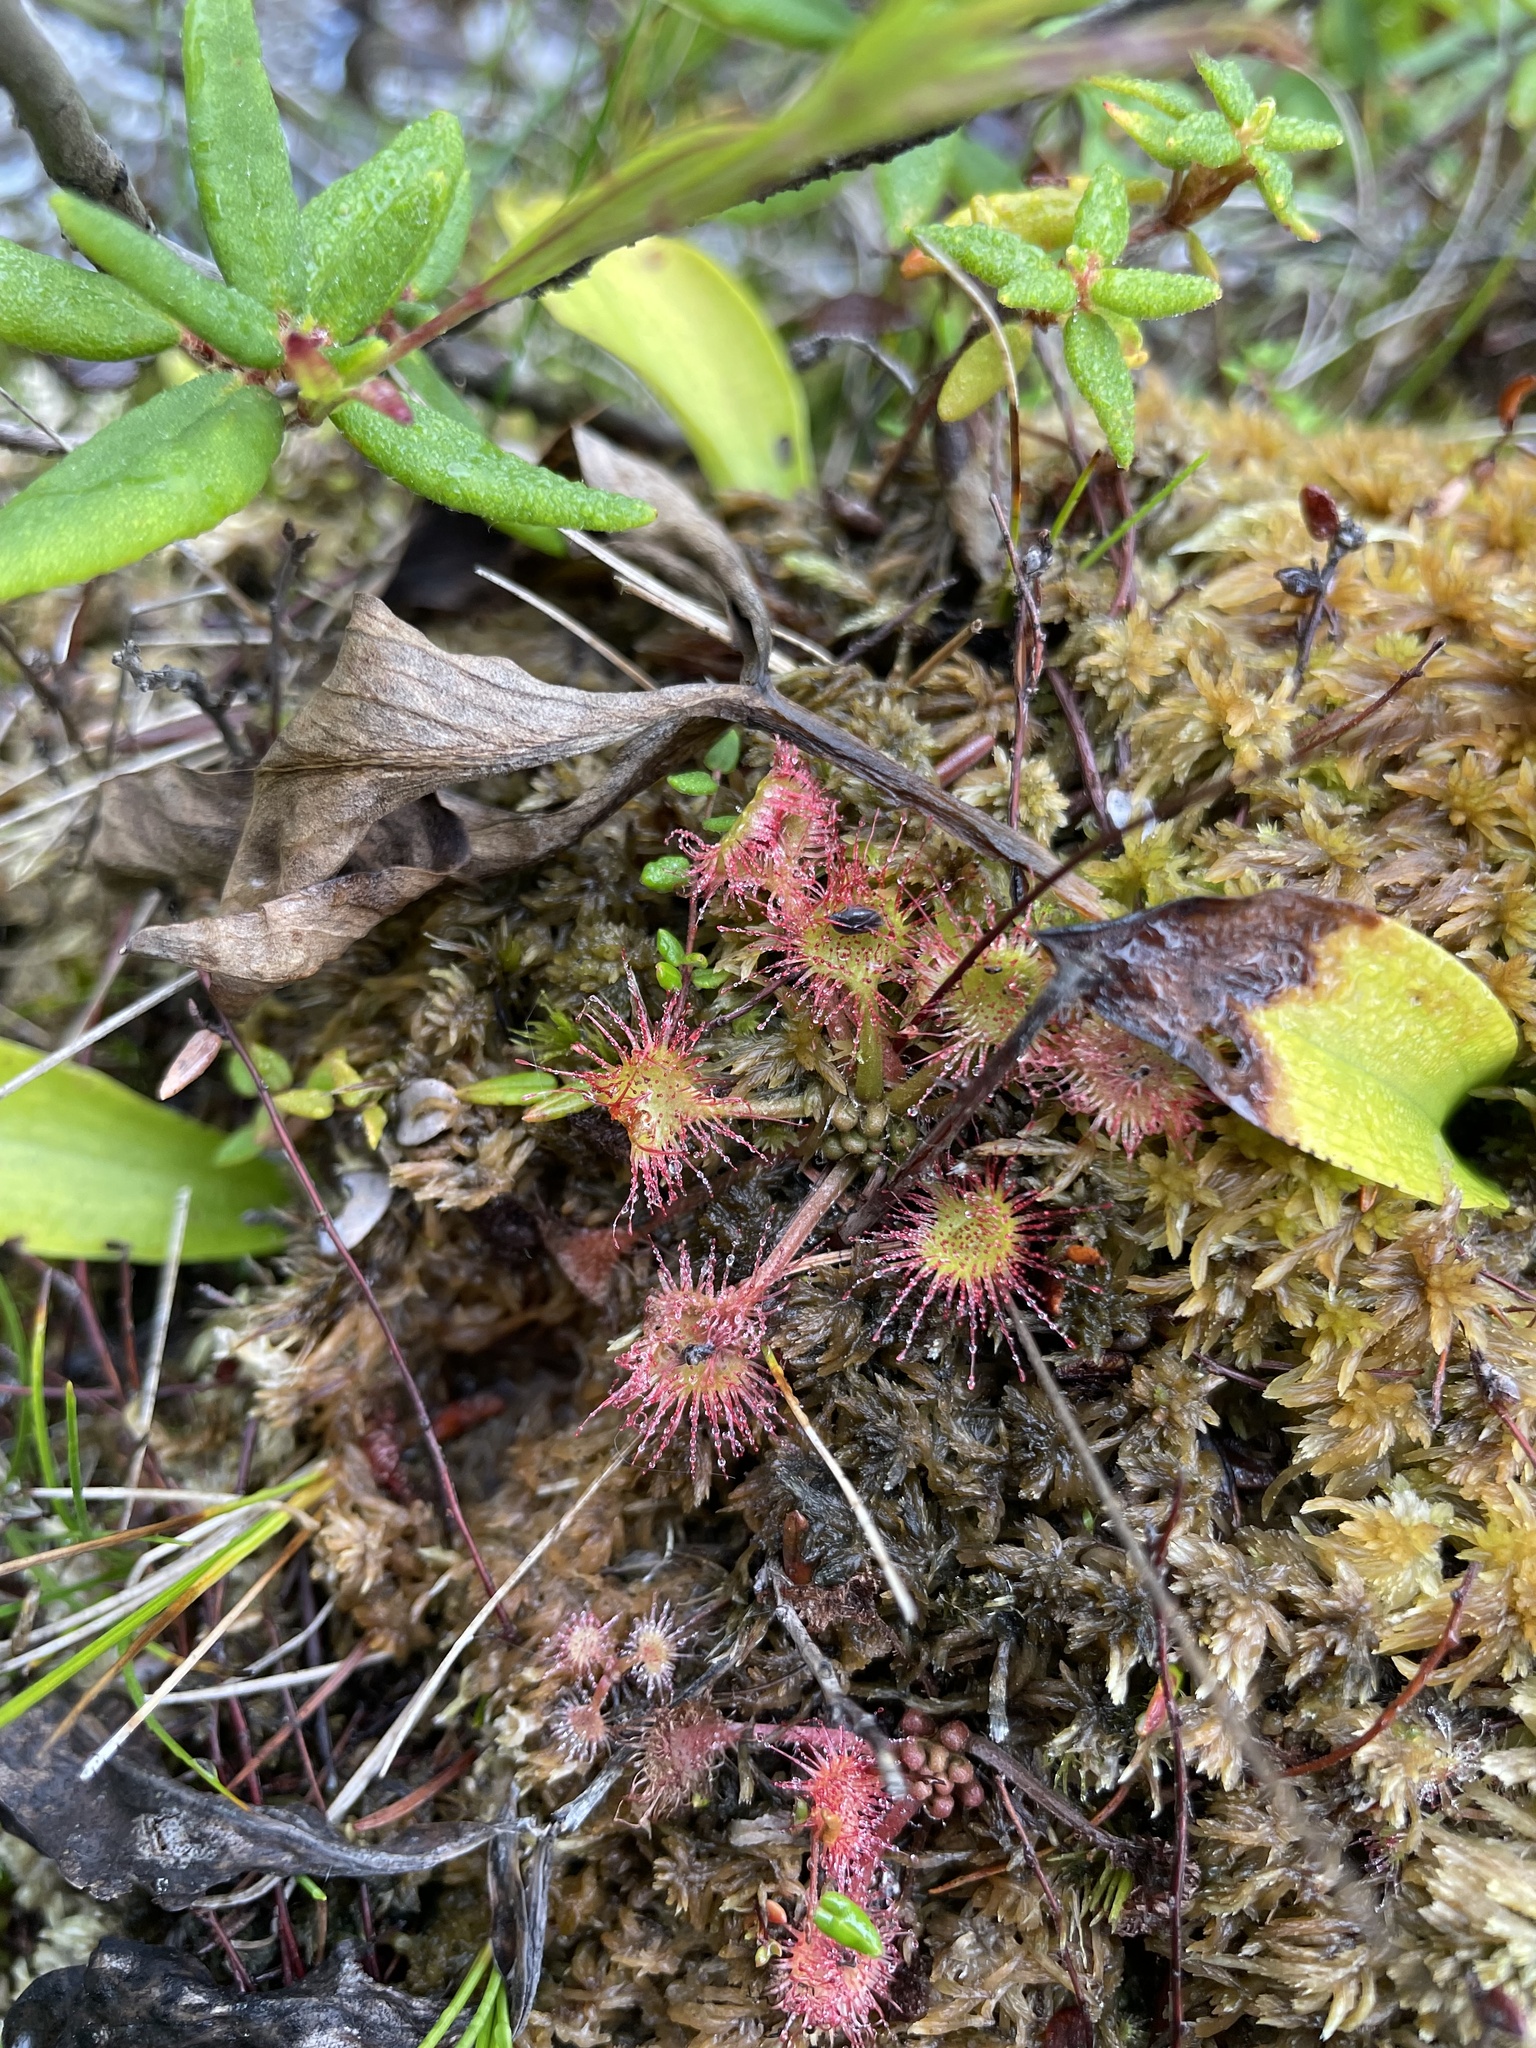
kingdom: Plantae
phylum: Tracheophyta
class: Magnoliopsida
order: Caryophyllales
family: Droseraceae
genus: Drosera
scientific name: Drosera rotundifolia
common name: Round-leaved sundew
